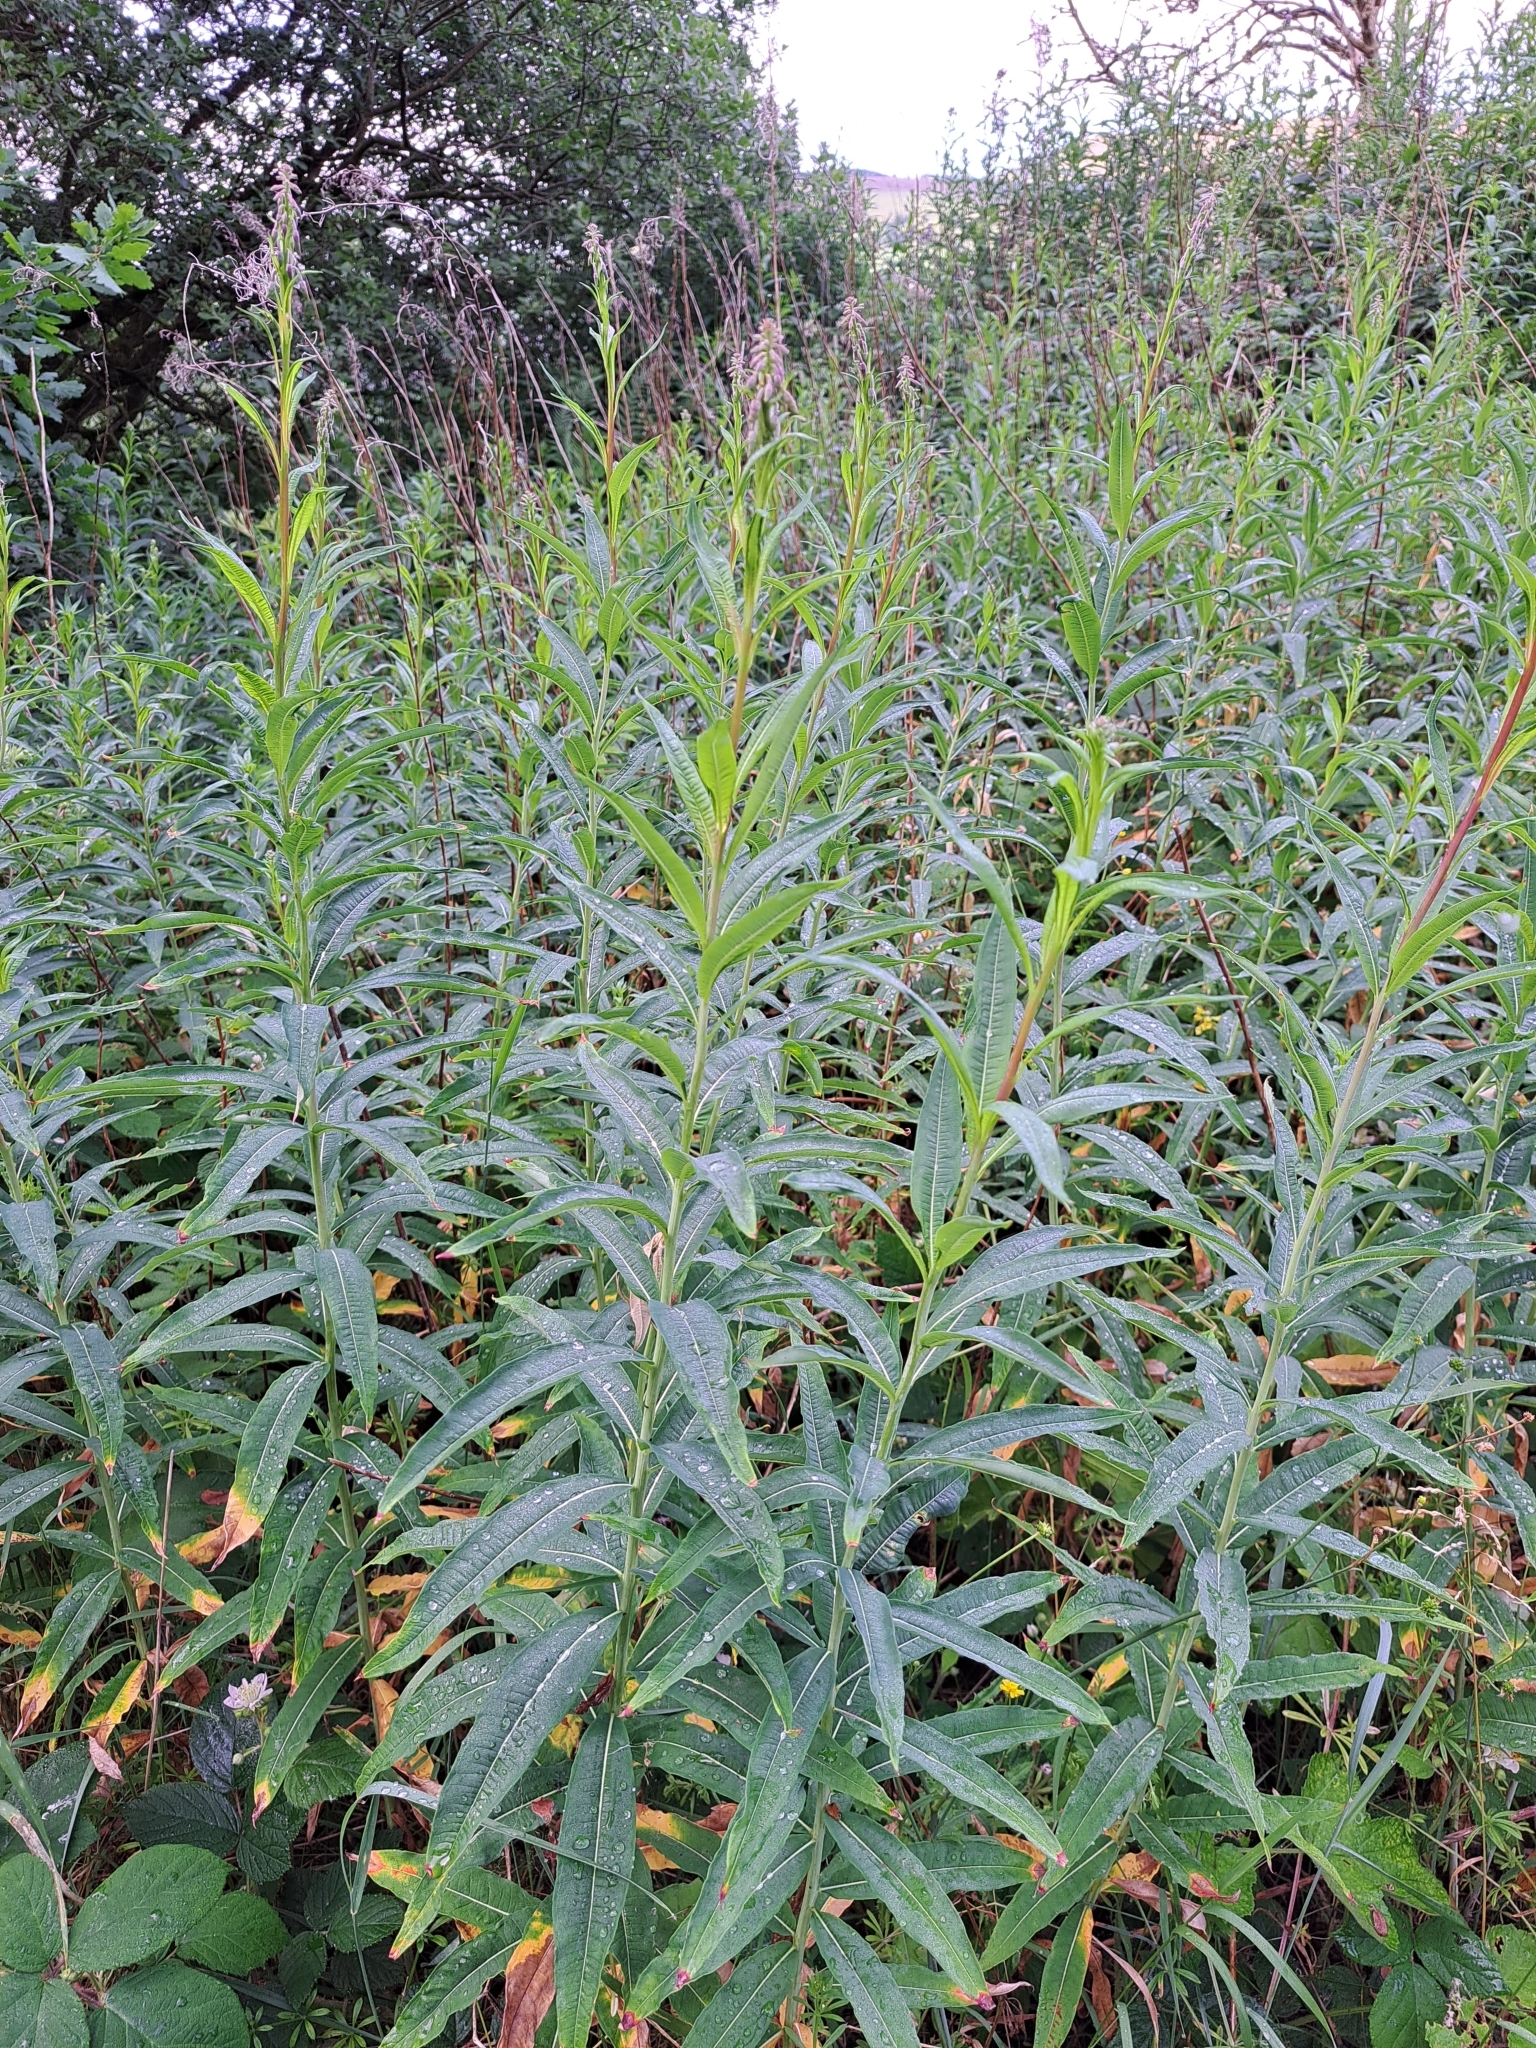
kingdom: Plantae
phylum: Tracheophyta
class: Magnoliopsida
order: Myrtales
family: Onagraceae
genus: Chamaenerion
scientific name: Chamaenerion angustifolium
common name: Fireweed
